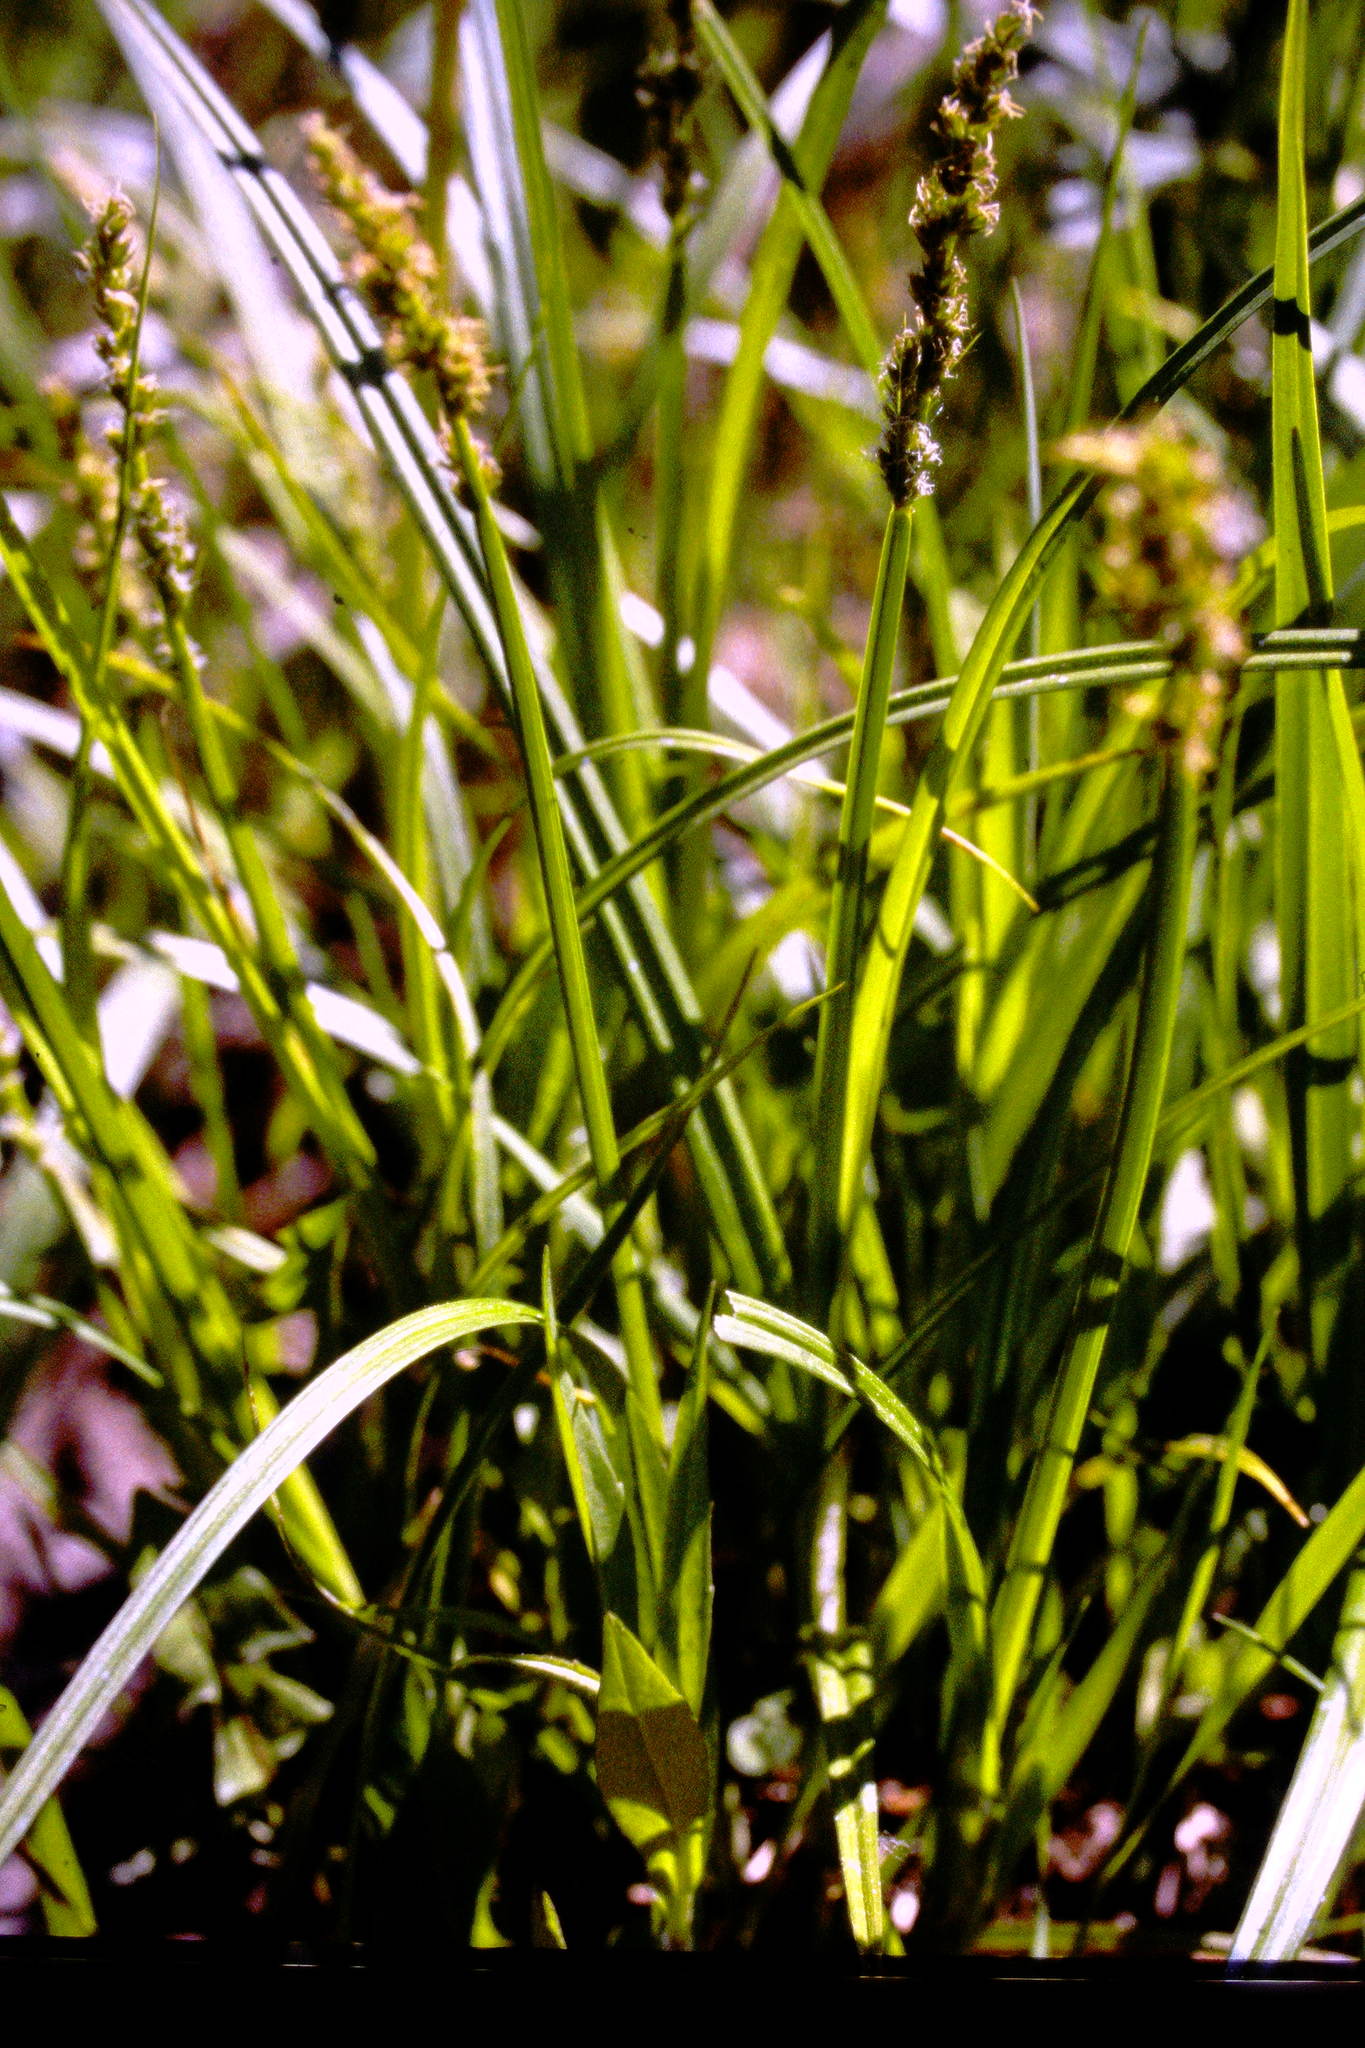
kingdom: Plantae
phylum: Tracheophyta
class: Liliopsida
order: Poales
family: Cyperaceae
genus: Carex
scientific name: Carex stipata
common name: Awl-fruited sedge
